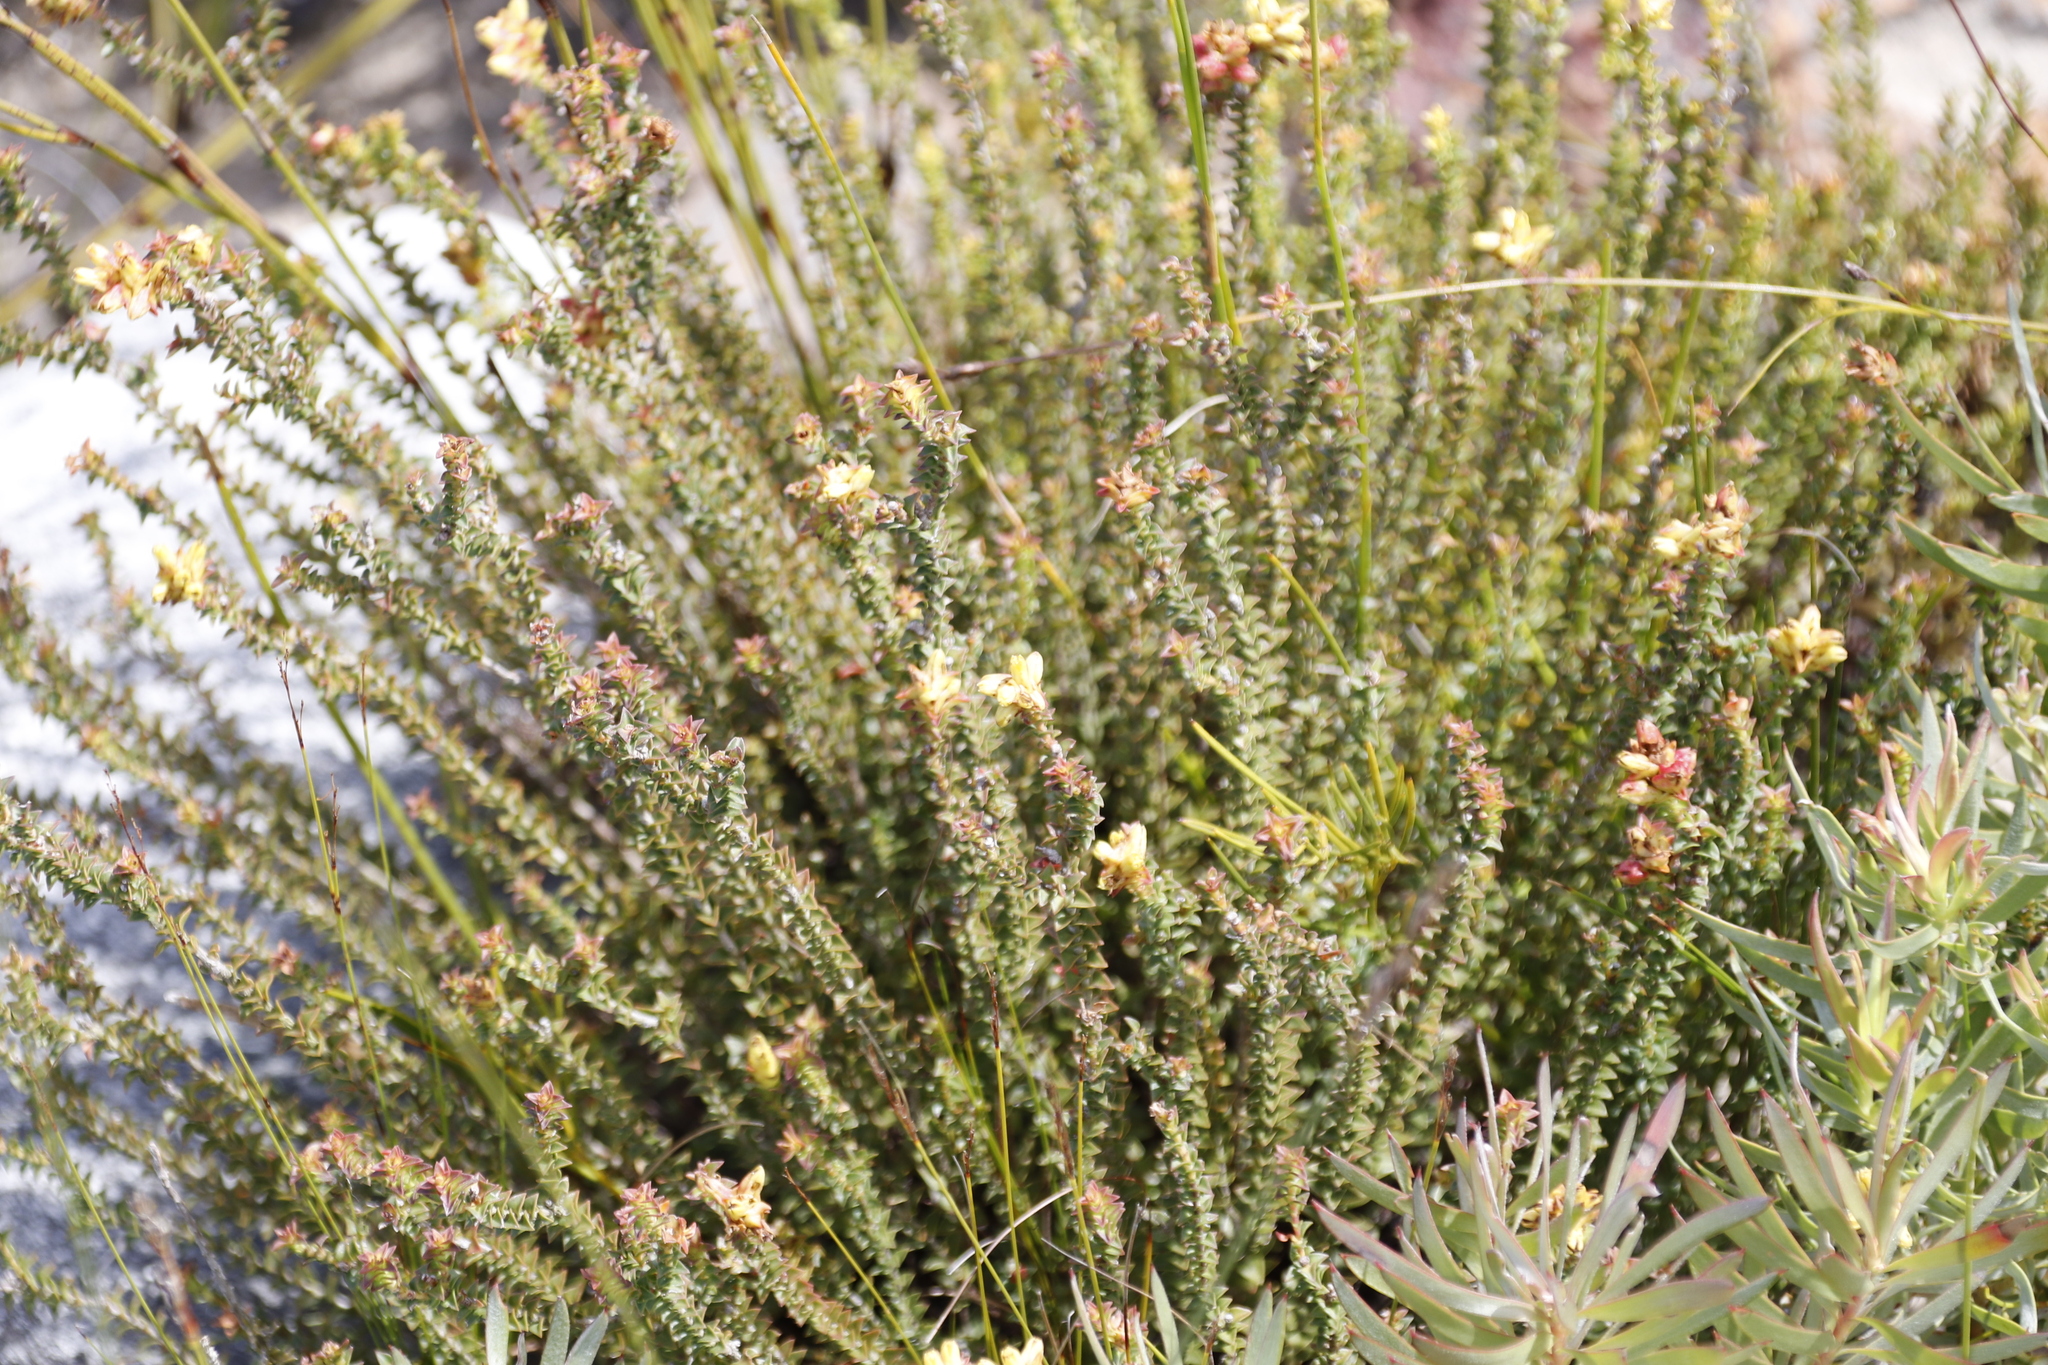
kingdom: Plantae
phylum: Tracheophyta
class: Magnoliopsida
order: Myrtales
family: Penaeaceae
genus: Penaea
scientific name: Penaea mucronata
